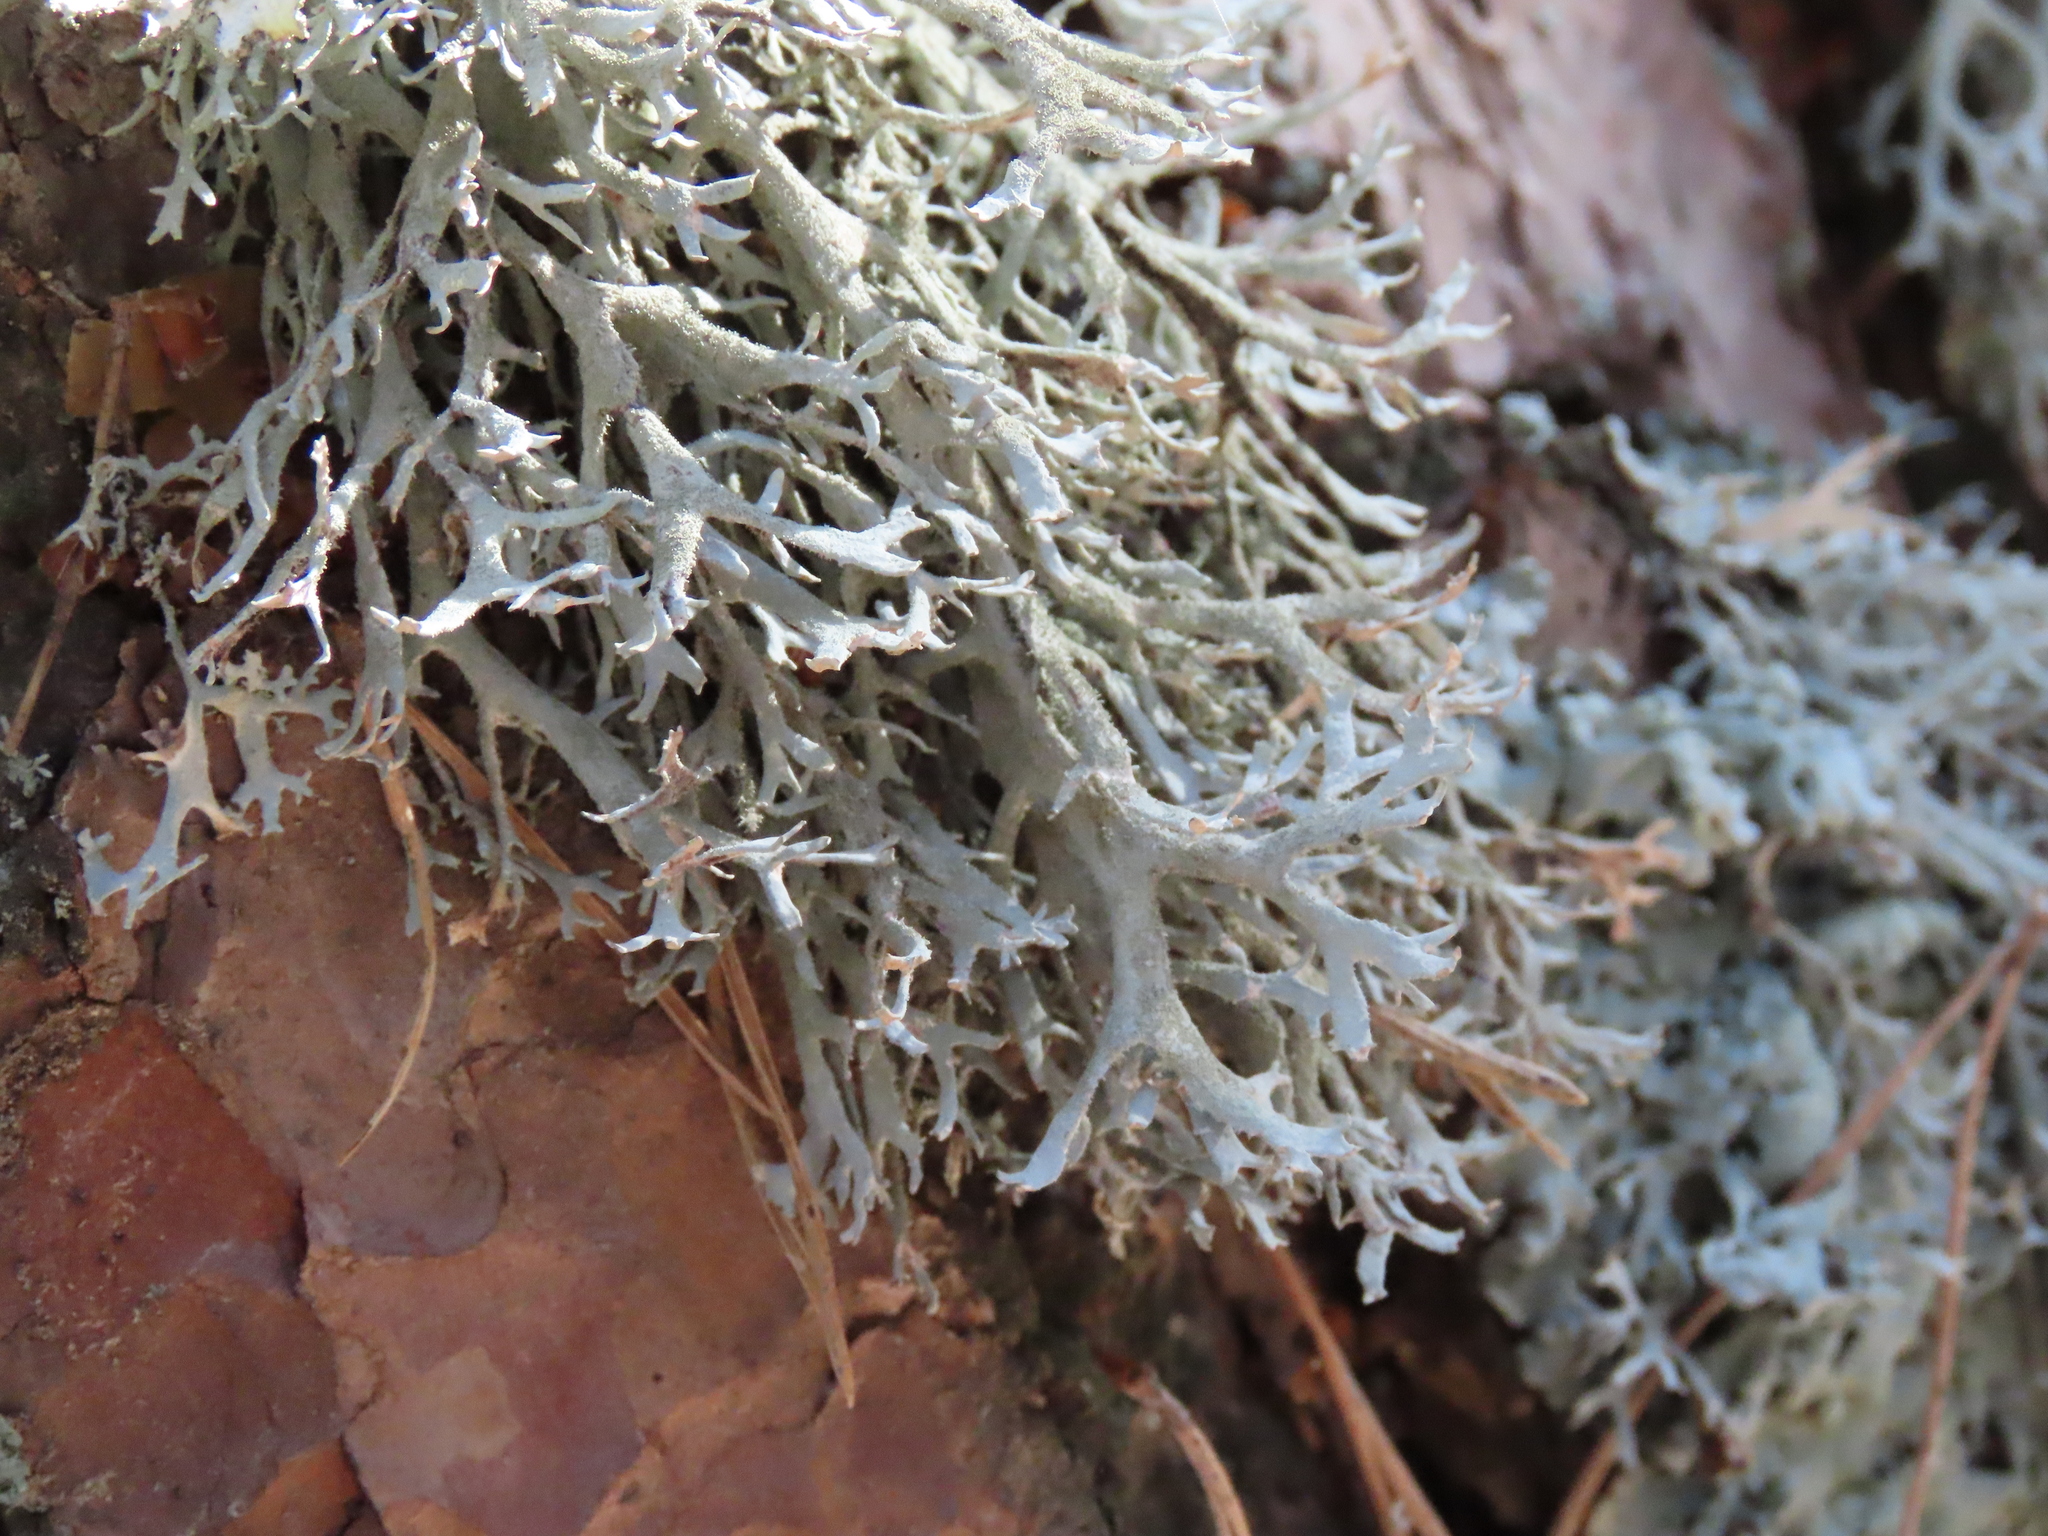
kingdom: Fungi
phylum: Ascomycota
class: Lecanoromycetes
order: Lecanorales
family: Parmeliaceae
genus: Pseudevernia
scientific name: Pseudevernia furfuracea
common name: Tree moss
